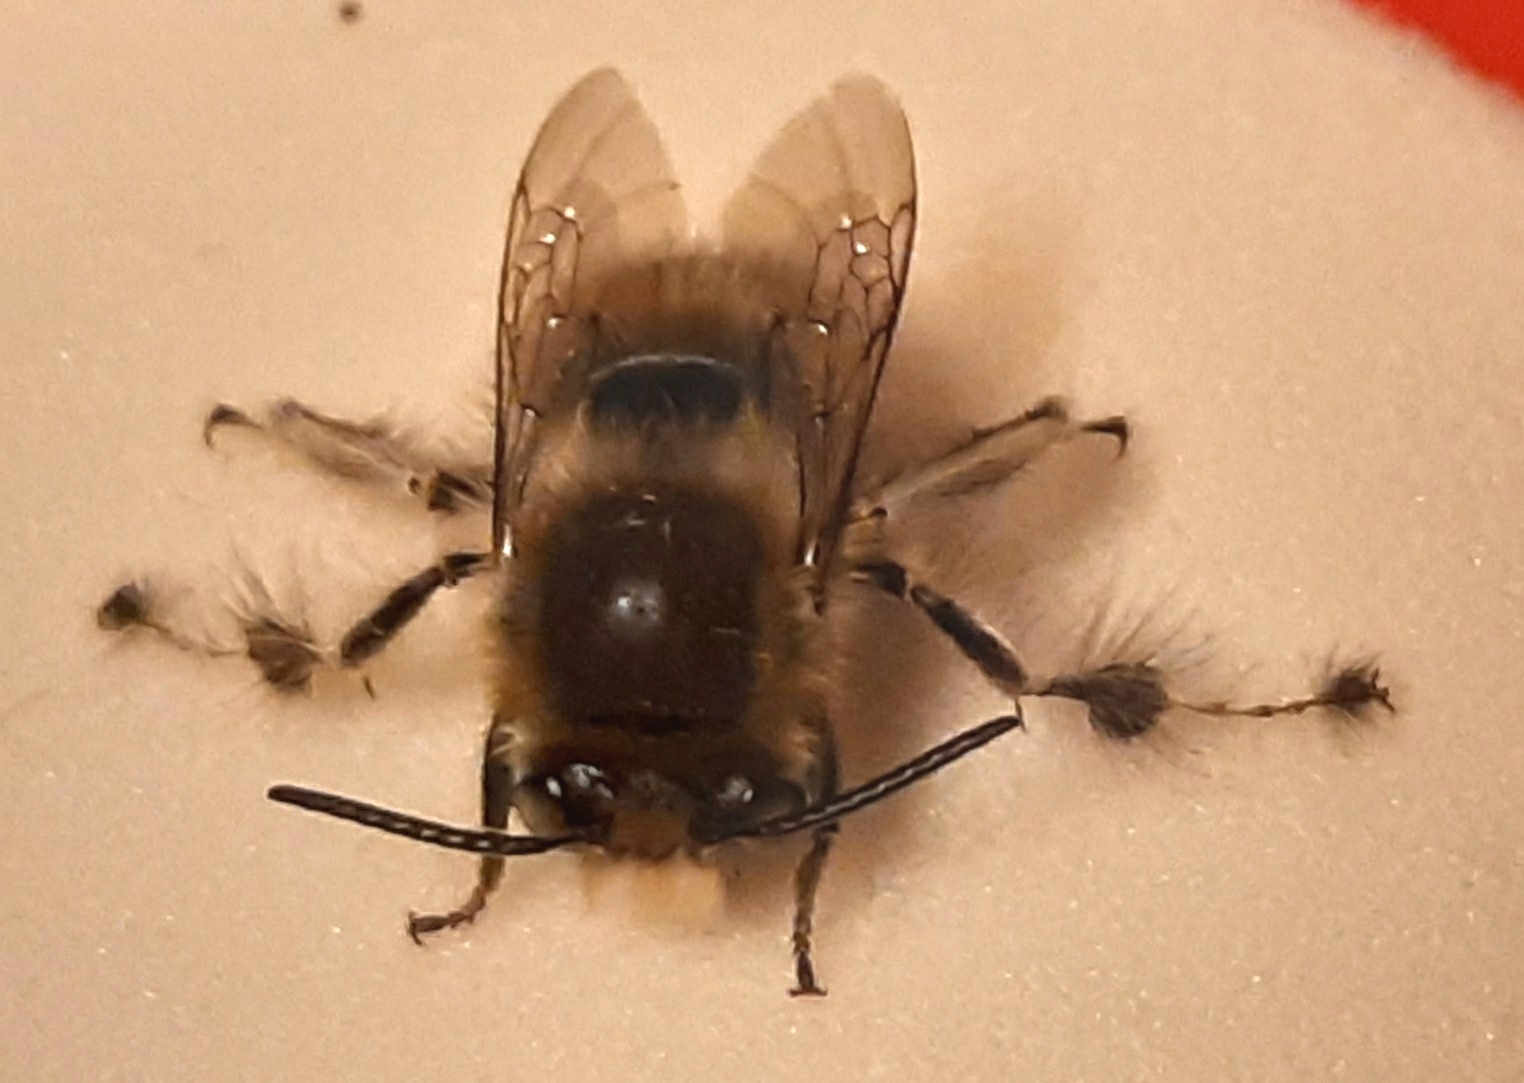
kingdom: Animalia
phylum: Arthropoda
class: Insecta
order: Hymenoptera
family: Apidae
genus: Anthophora
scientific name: Anthophora crinipes
